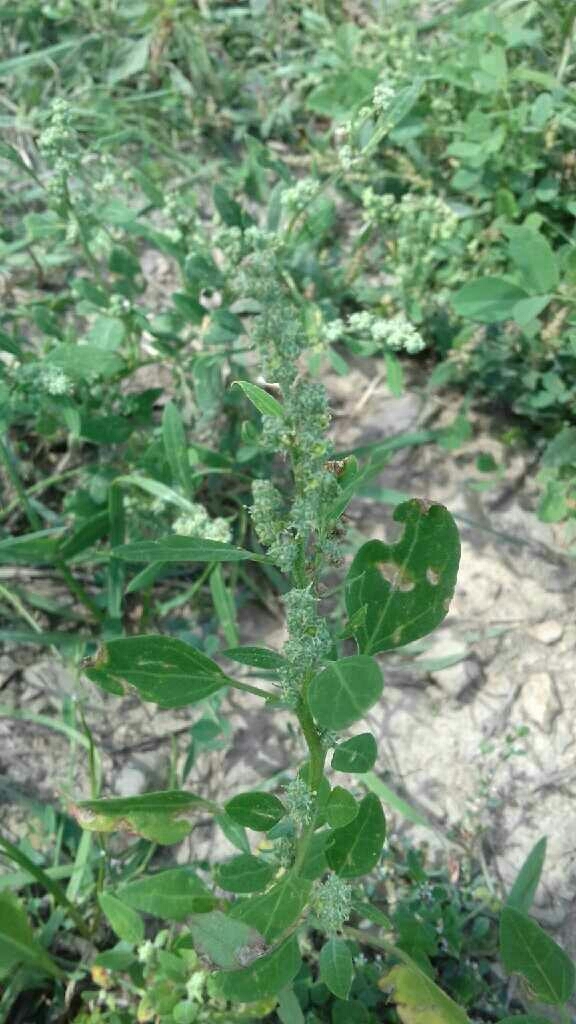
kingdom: Plantae
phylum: Tracheophyta
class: Magnoliopsida
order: Caryophyllales
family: Amaranthaceae
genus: Chenopodium
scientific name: Chenopodium album
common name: Fat-hen
